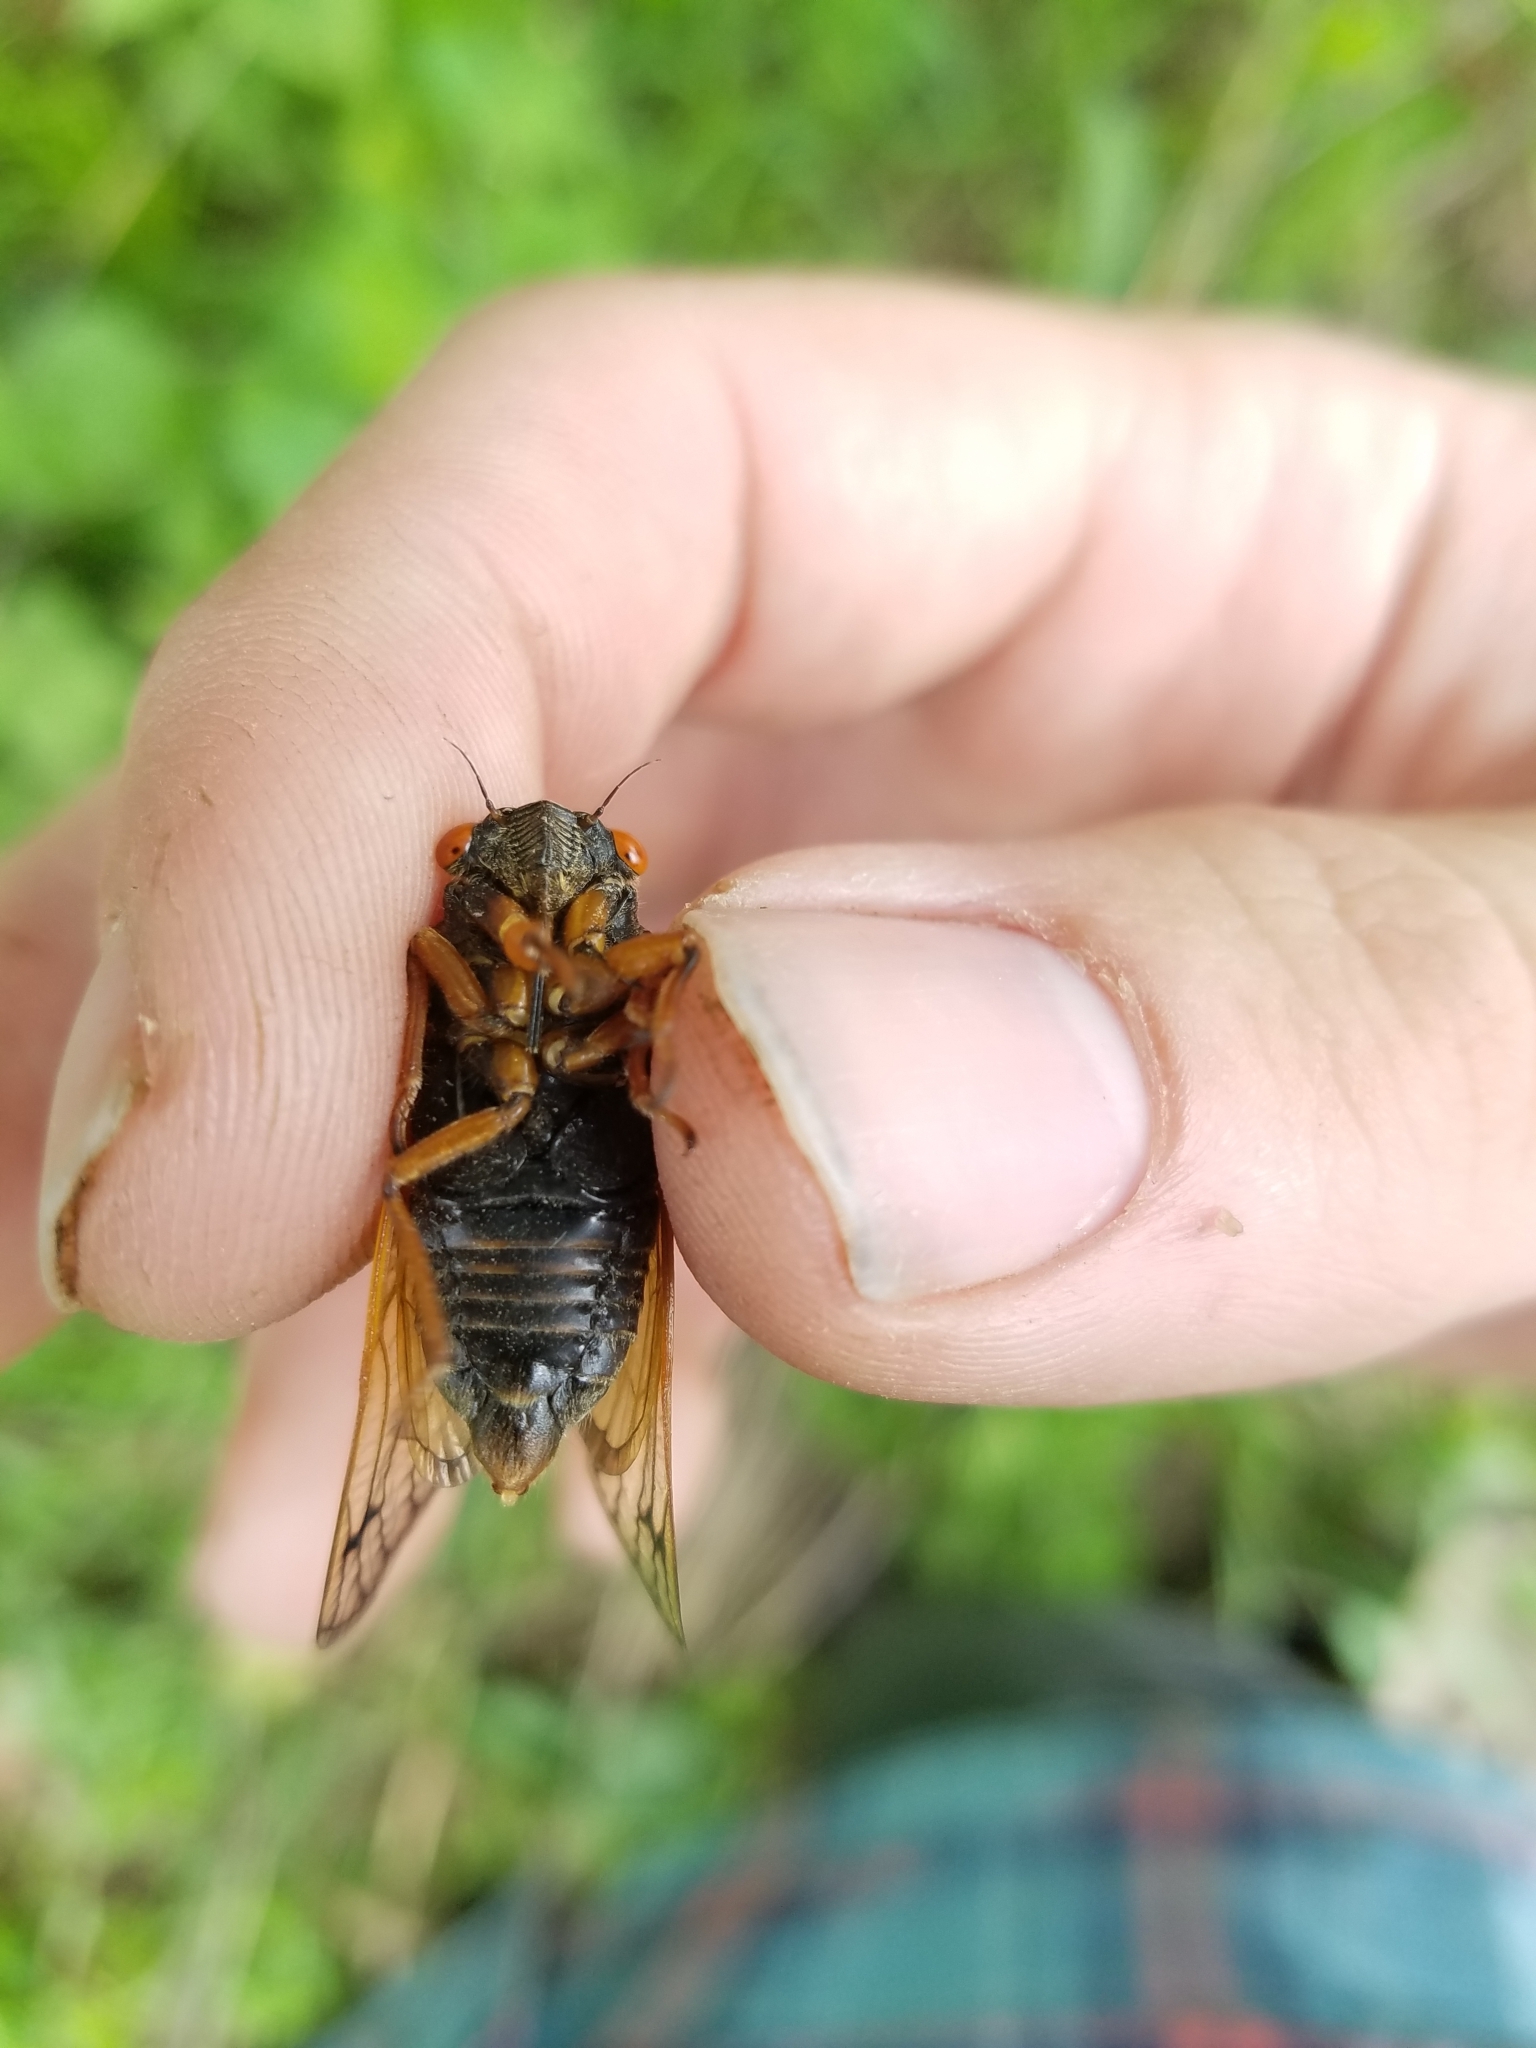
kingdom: Animalia
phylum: Arthropoda
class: Insecta
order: Hemiptera
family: Cicadidae
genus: Magicicada
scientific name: Magicicada cassini
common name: Cassin's 17-year cicada
